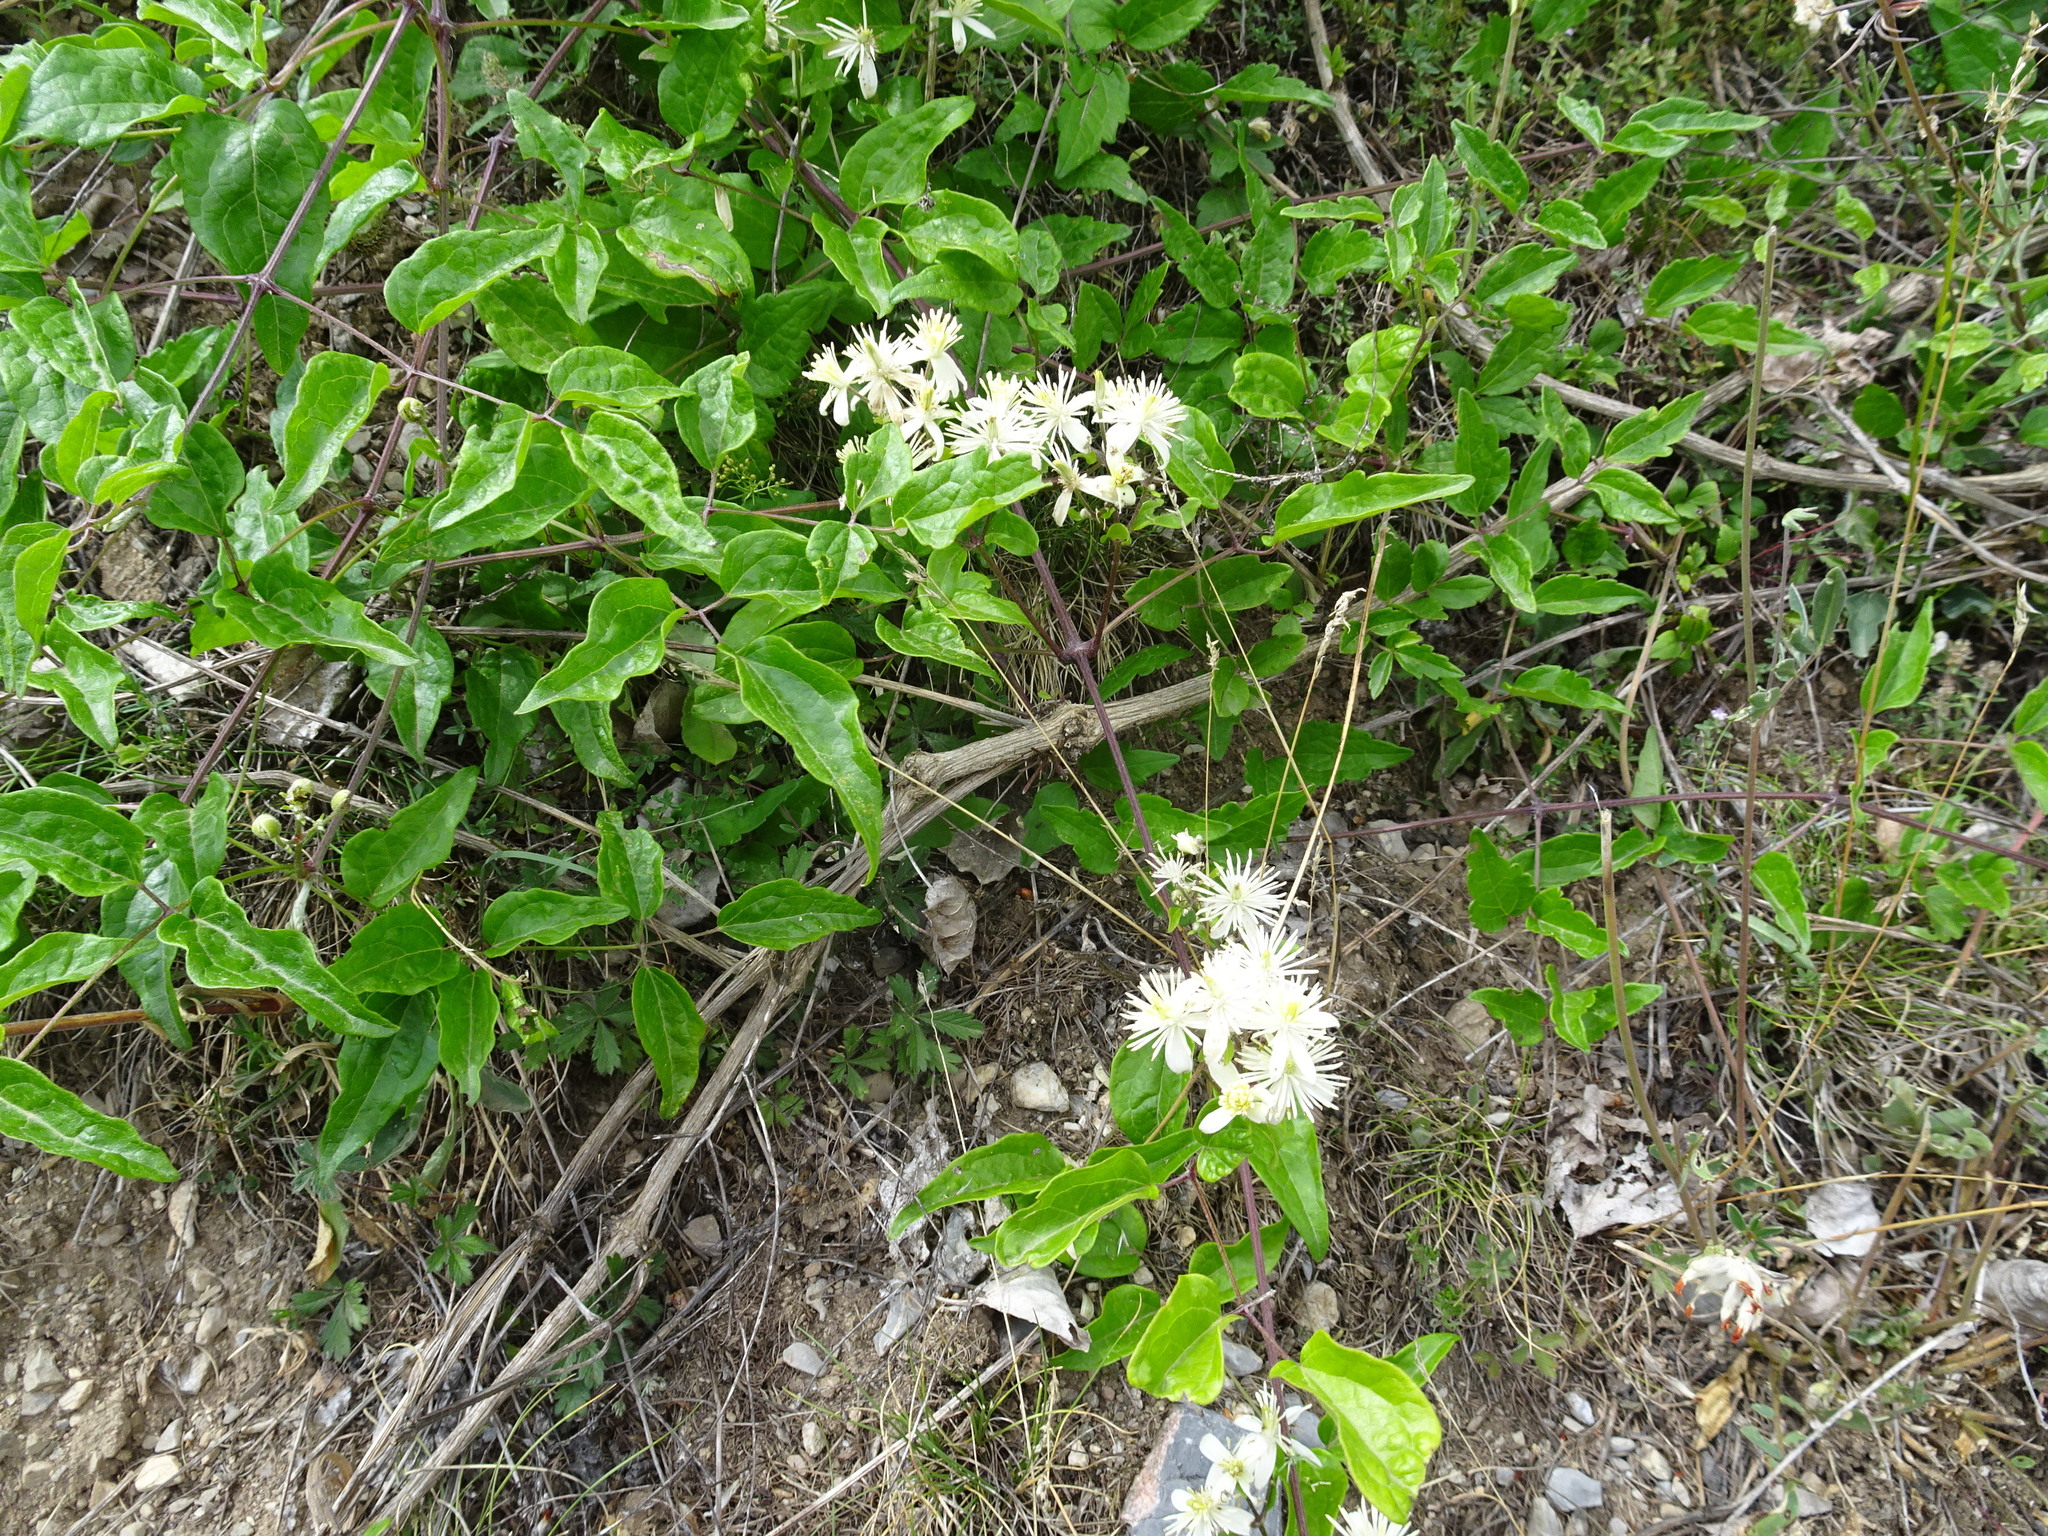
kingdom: Plantae
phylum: Tracheophyta
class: Magnoliopsida
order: Ranunculales
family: Ranunculaceae
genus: Clematis
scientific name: Clematis vitalba
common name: Evergreen clematis
